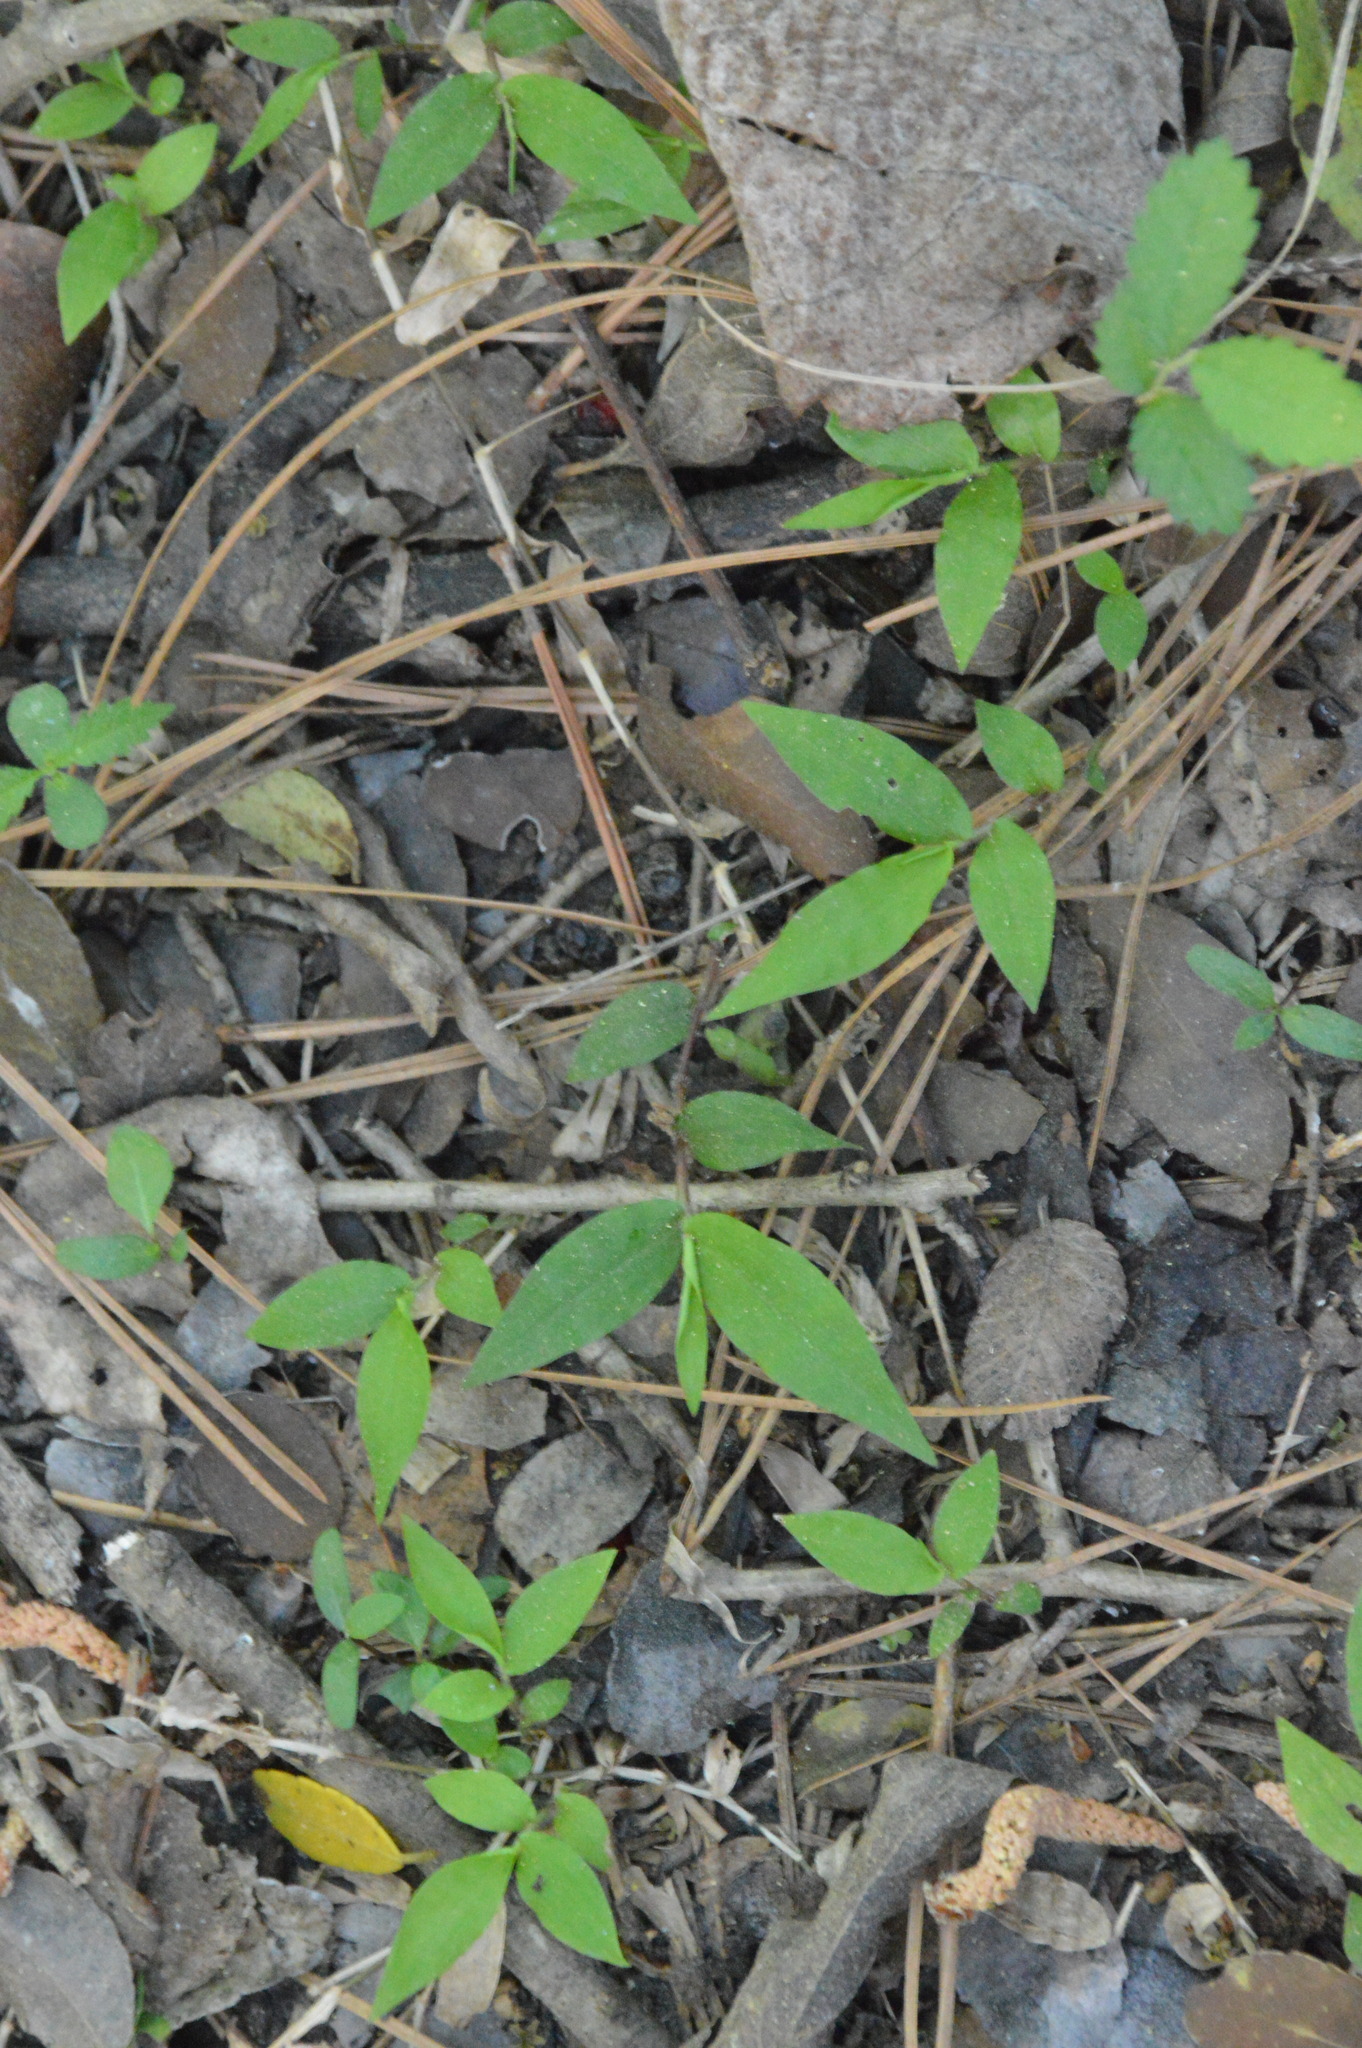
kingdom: Plantae
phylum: Tracheophyta
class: Liliopsida
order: Poales
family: Poaceae
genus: Oplismenus
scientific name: Oplismenus hirtellus
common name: Basketgrass
